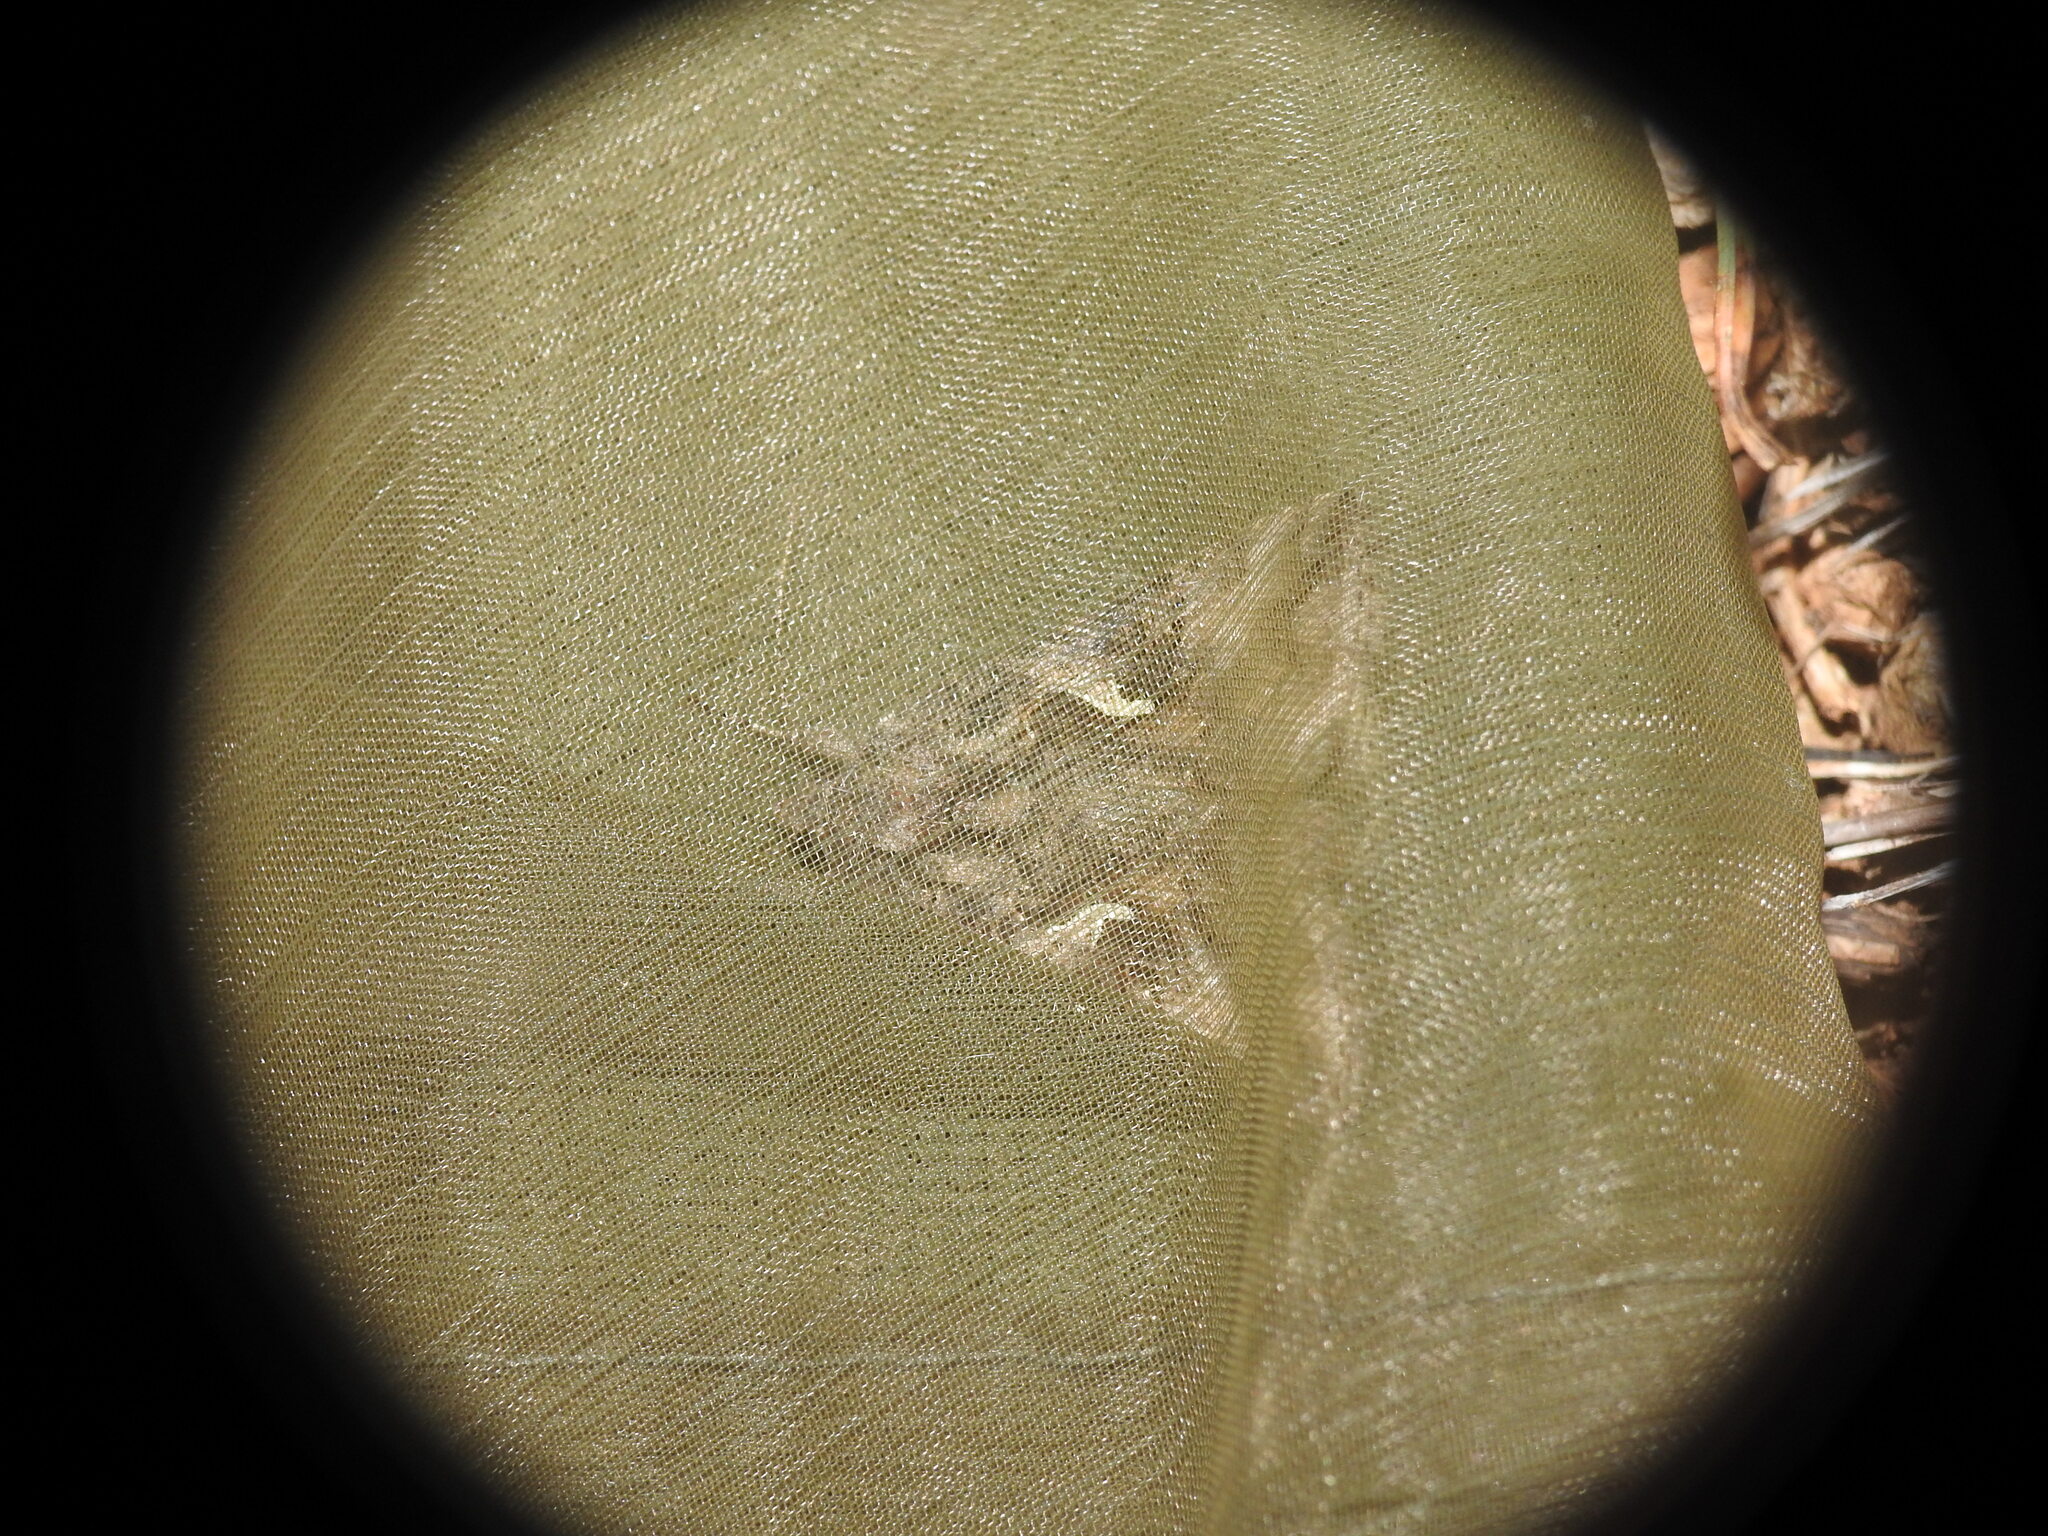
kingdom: Animalia
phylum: Arthropoda
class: Insecta
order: Lepidoptera
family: Noctuidae
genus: Autographa
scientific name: Autographa gamma
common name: Silver y
